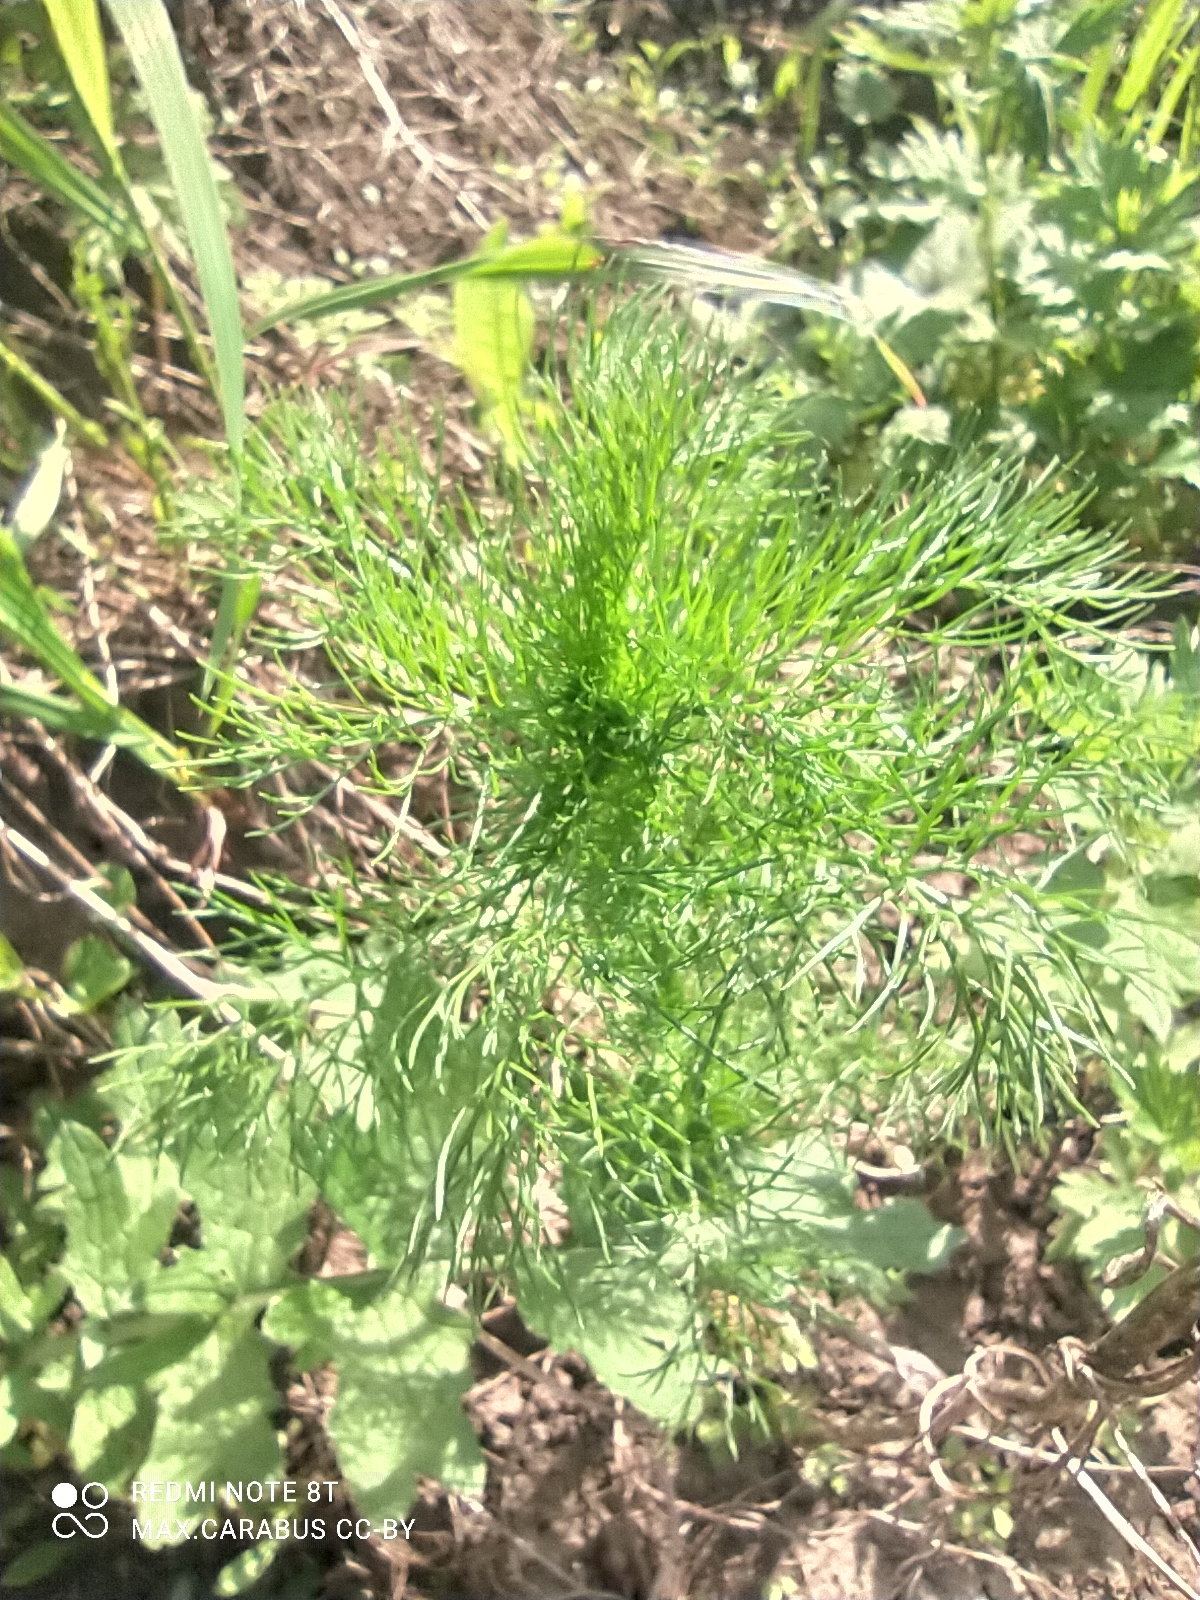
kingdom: Plantae
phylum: Tracheophyta
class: Magnoliopsida
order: Asterales
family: Asteraceae
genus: Tripleurospermum
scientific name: Tripleurospermum inodorum
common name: Scentless mayweed
